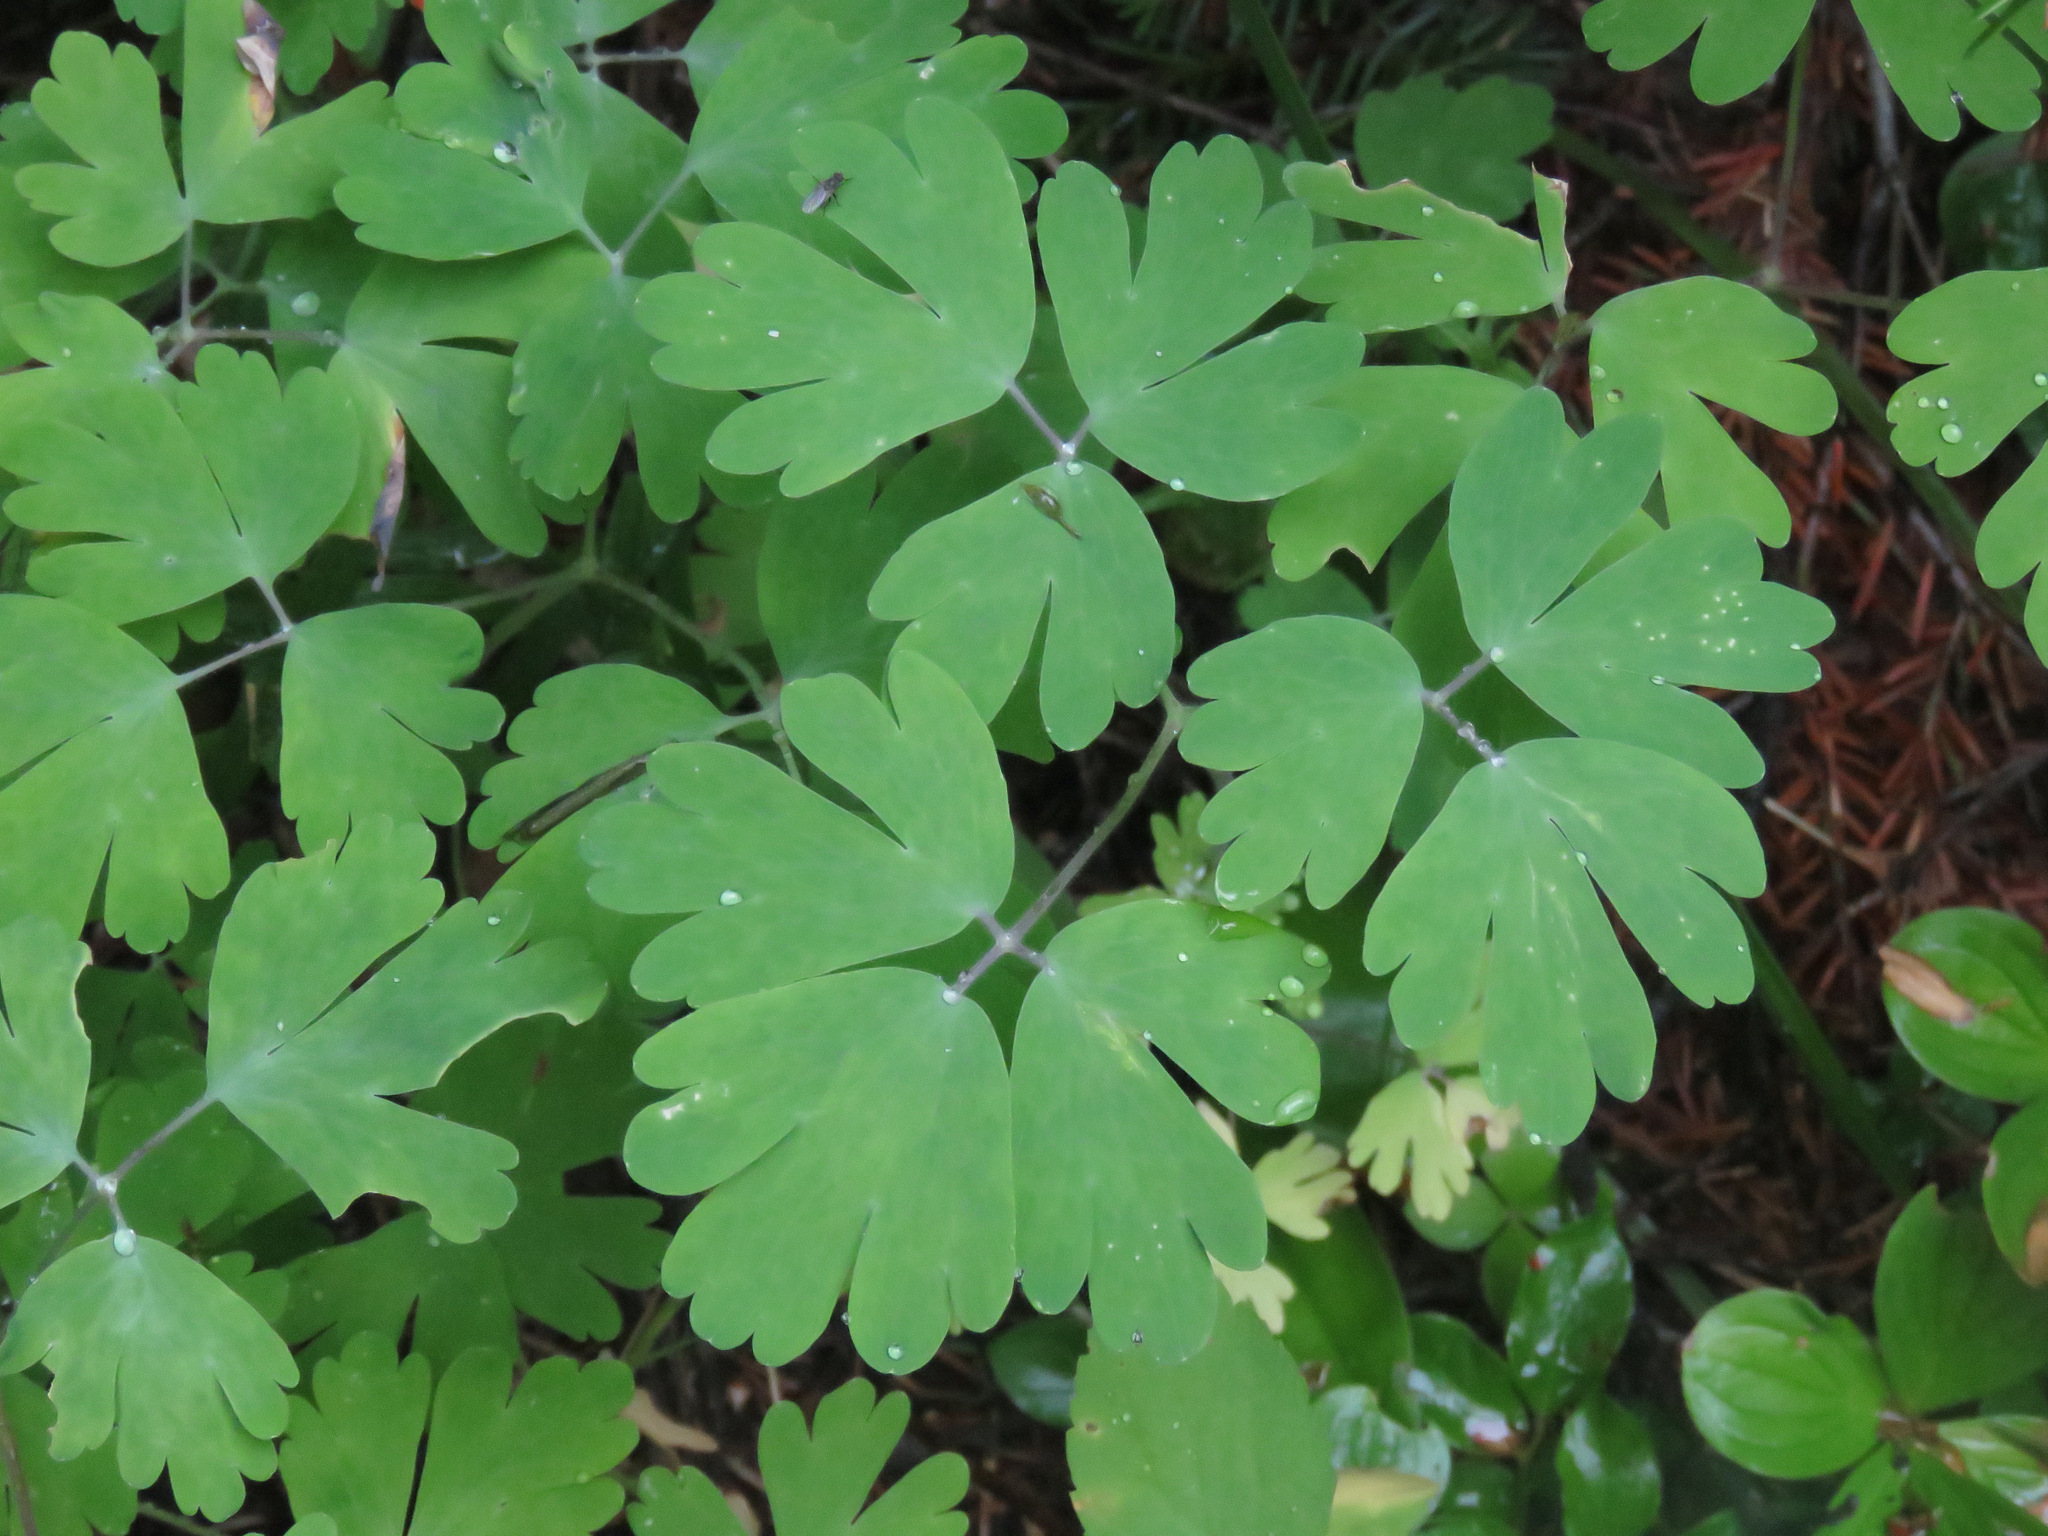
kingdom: Plantae
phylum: Tracheophyta
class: Magnoliopsida
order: Ranunculales
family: Ranunculaceae
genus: Aquilegia
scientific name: Aquilegia formosa
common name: Sitka columbine
